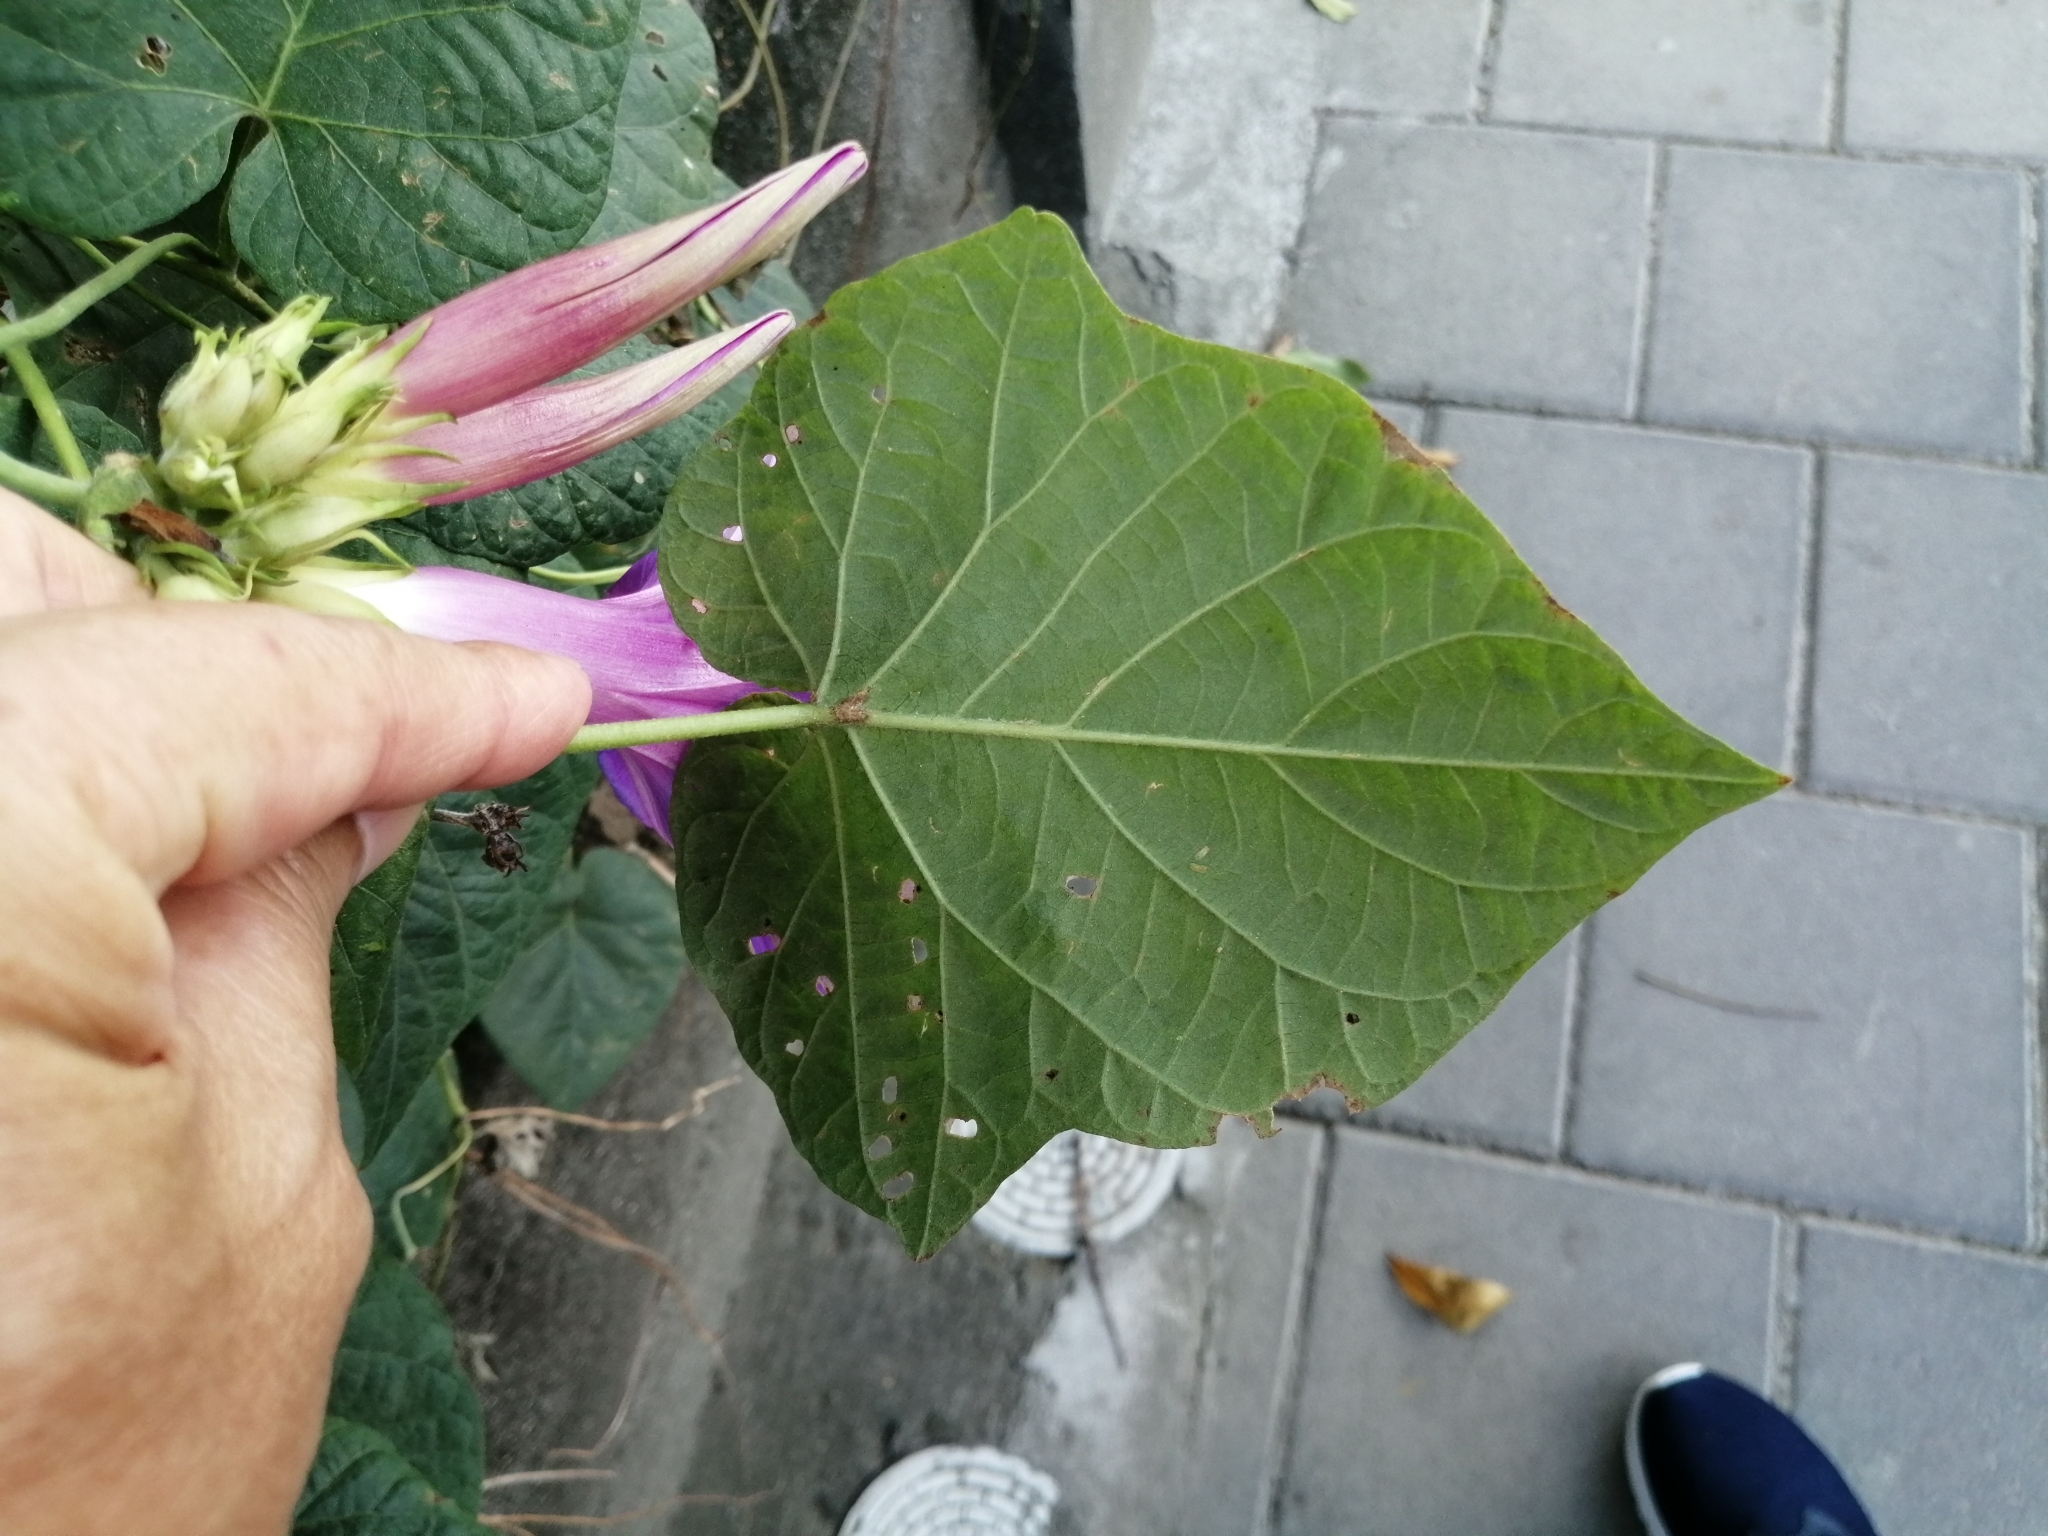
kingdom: Plantae
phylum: Tracheophyta
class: Magnoliopsida
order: Solanales
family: Convolvulaceae
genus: Ipomoea
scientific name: Ipomoea indica
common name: Blue dawnflower
